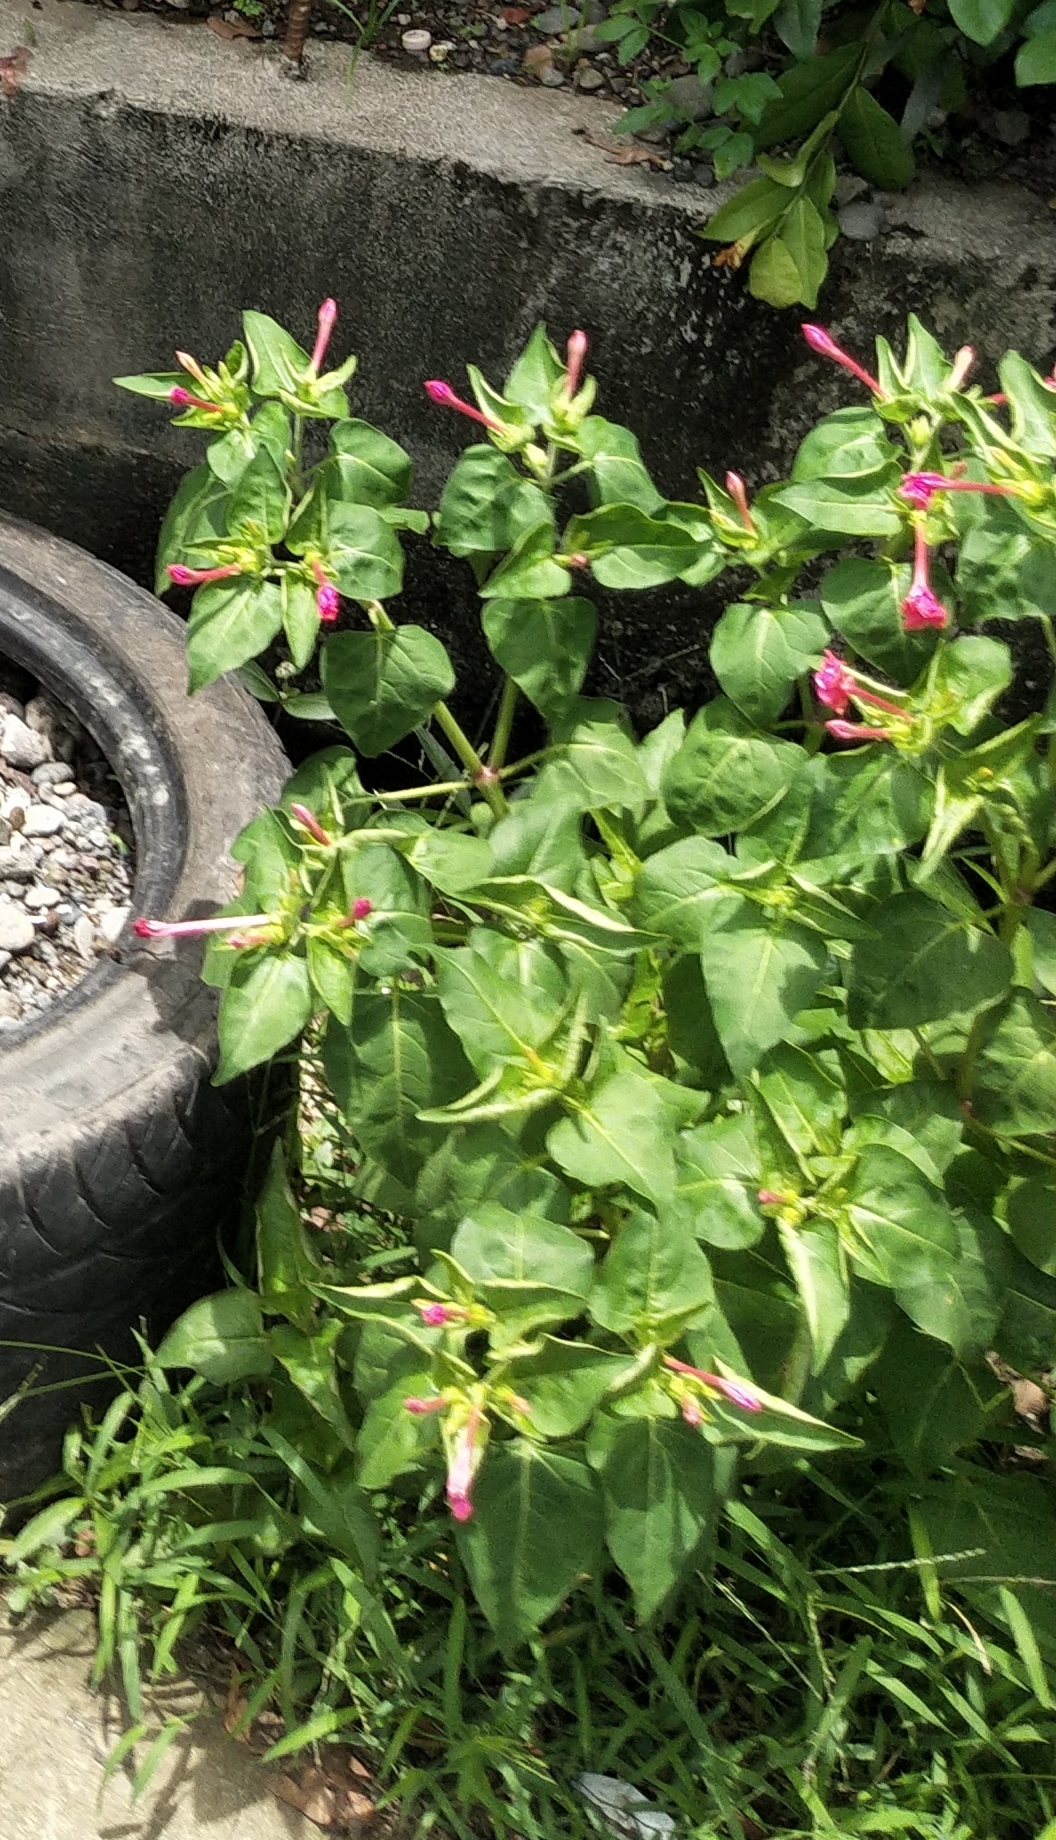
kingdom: Plantae
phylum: Tracheophyta
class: Magnoliopsida
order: Caryophyllales
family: Nyctaginaceae
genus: Mirabilis
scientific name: Mirabilis jalapa
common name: Marvel-of-peru
